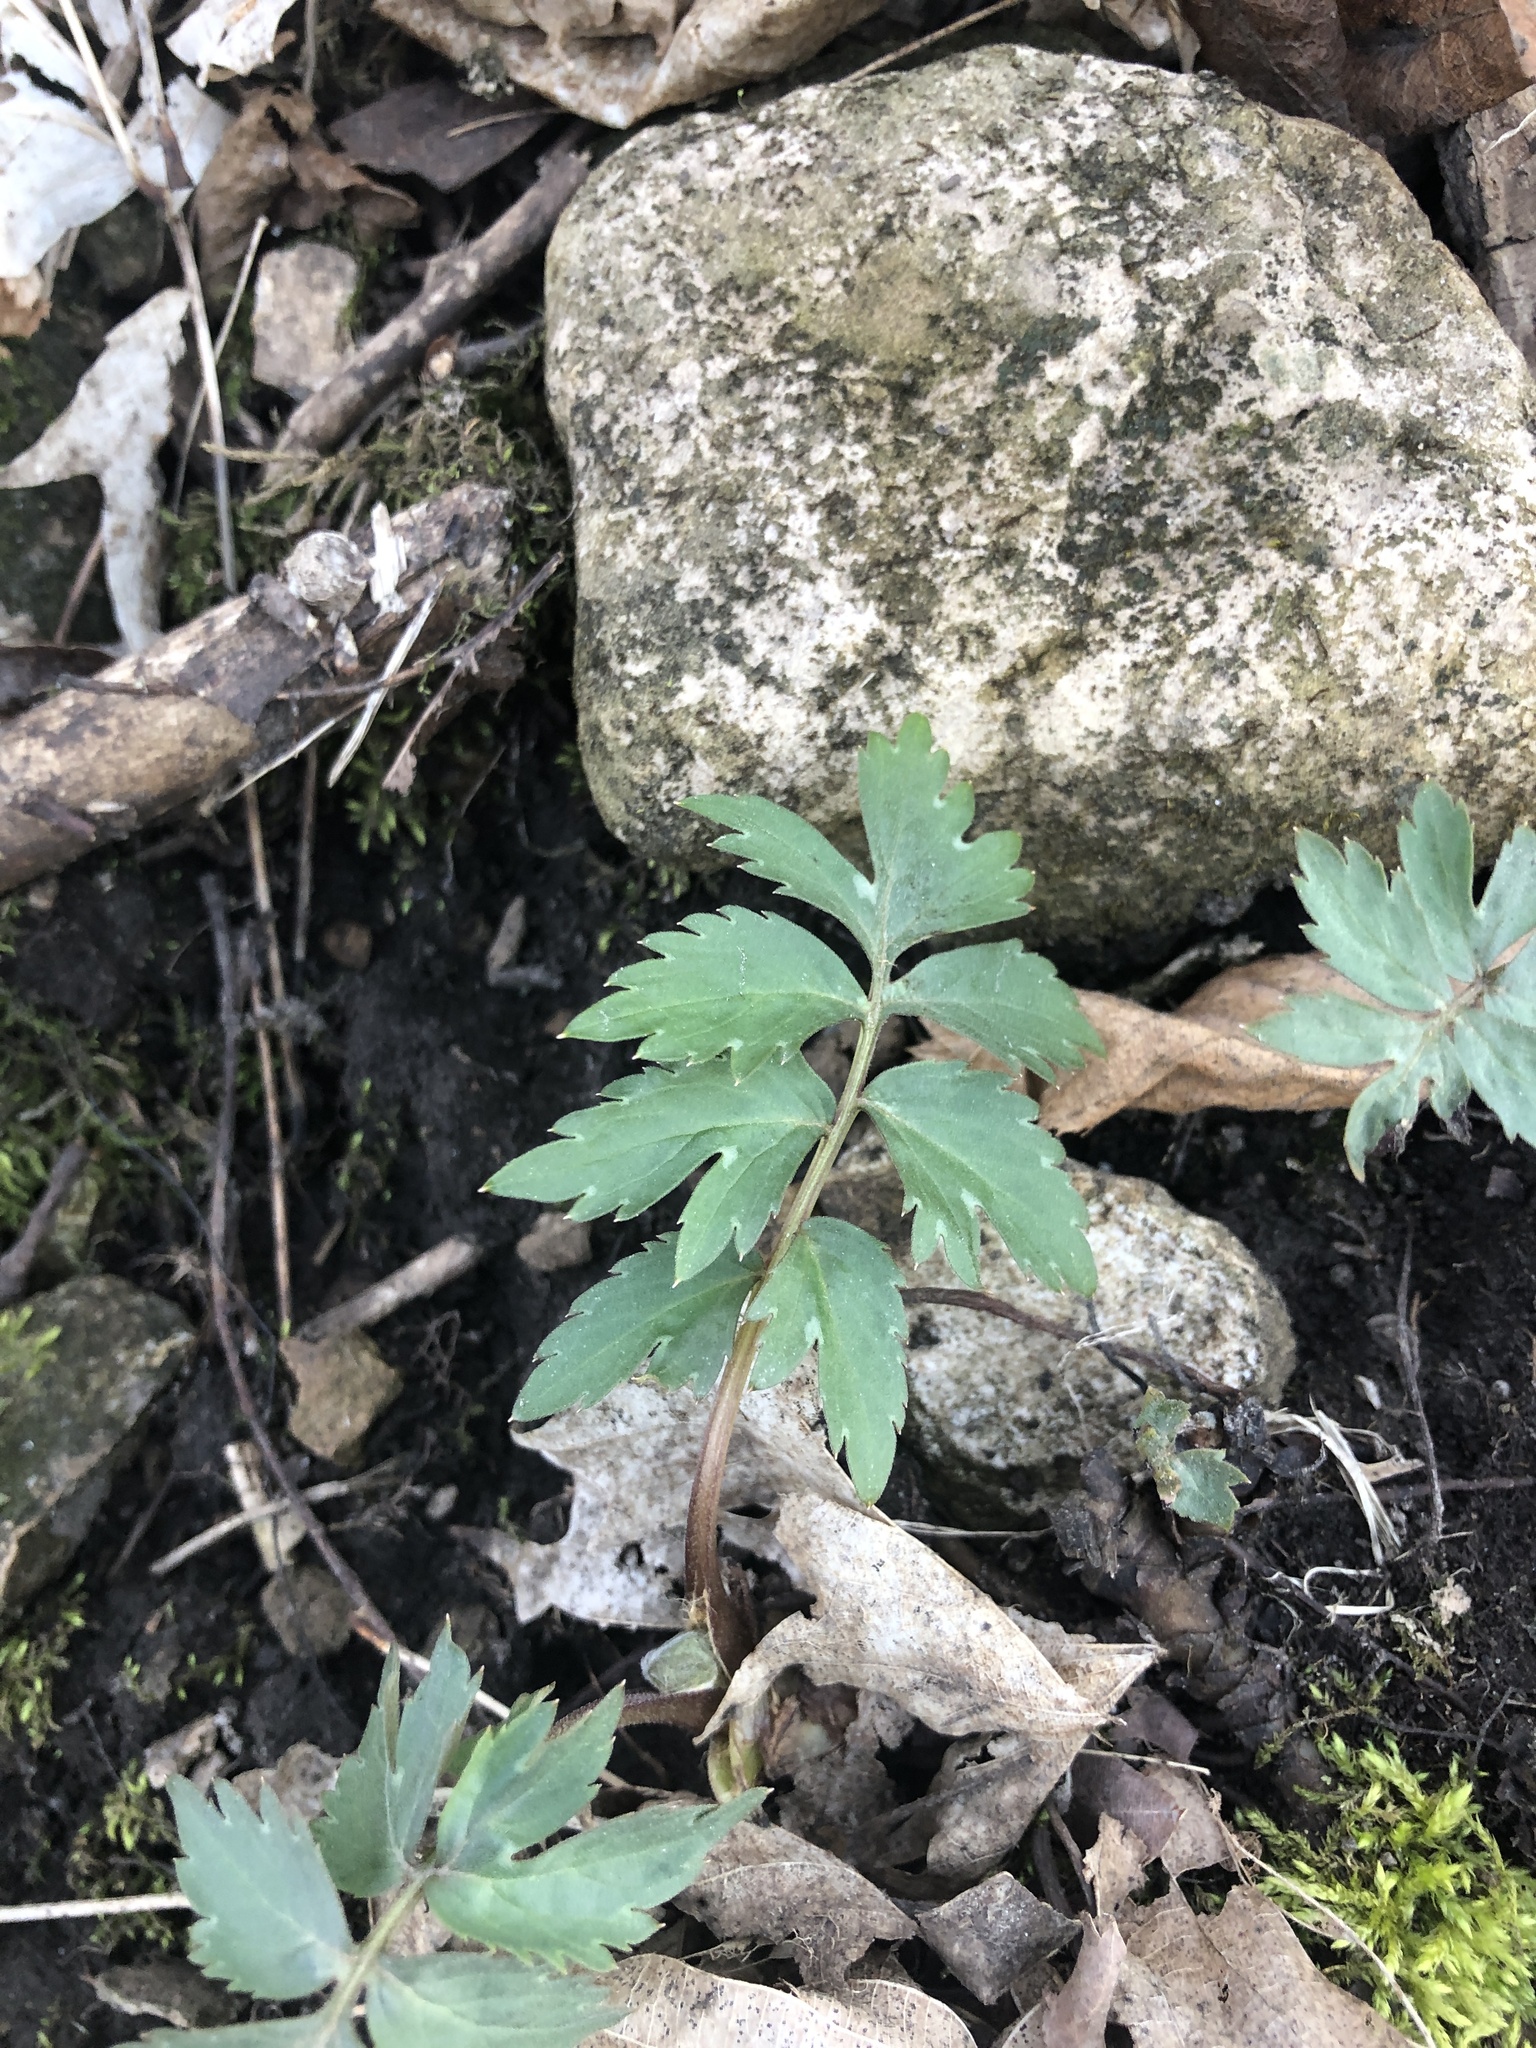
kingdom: Plantae
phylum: Tracheophyta
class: Magnoliopsida
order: Boraginales
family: Hydrophyllaceae
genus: Hydrophyllum
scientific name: Hydrophyllum virginianum
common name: Virginia waterleaf
